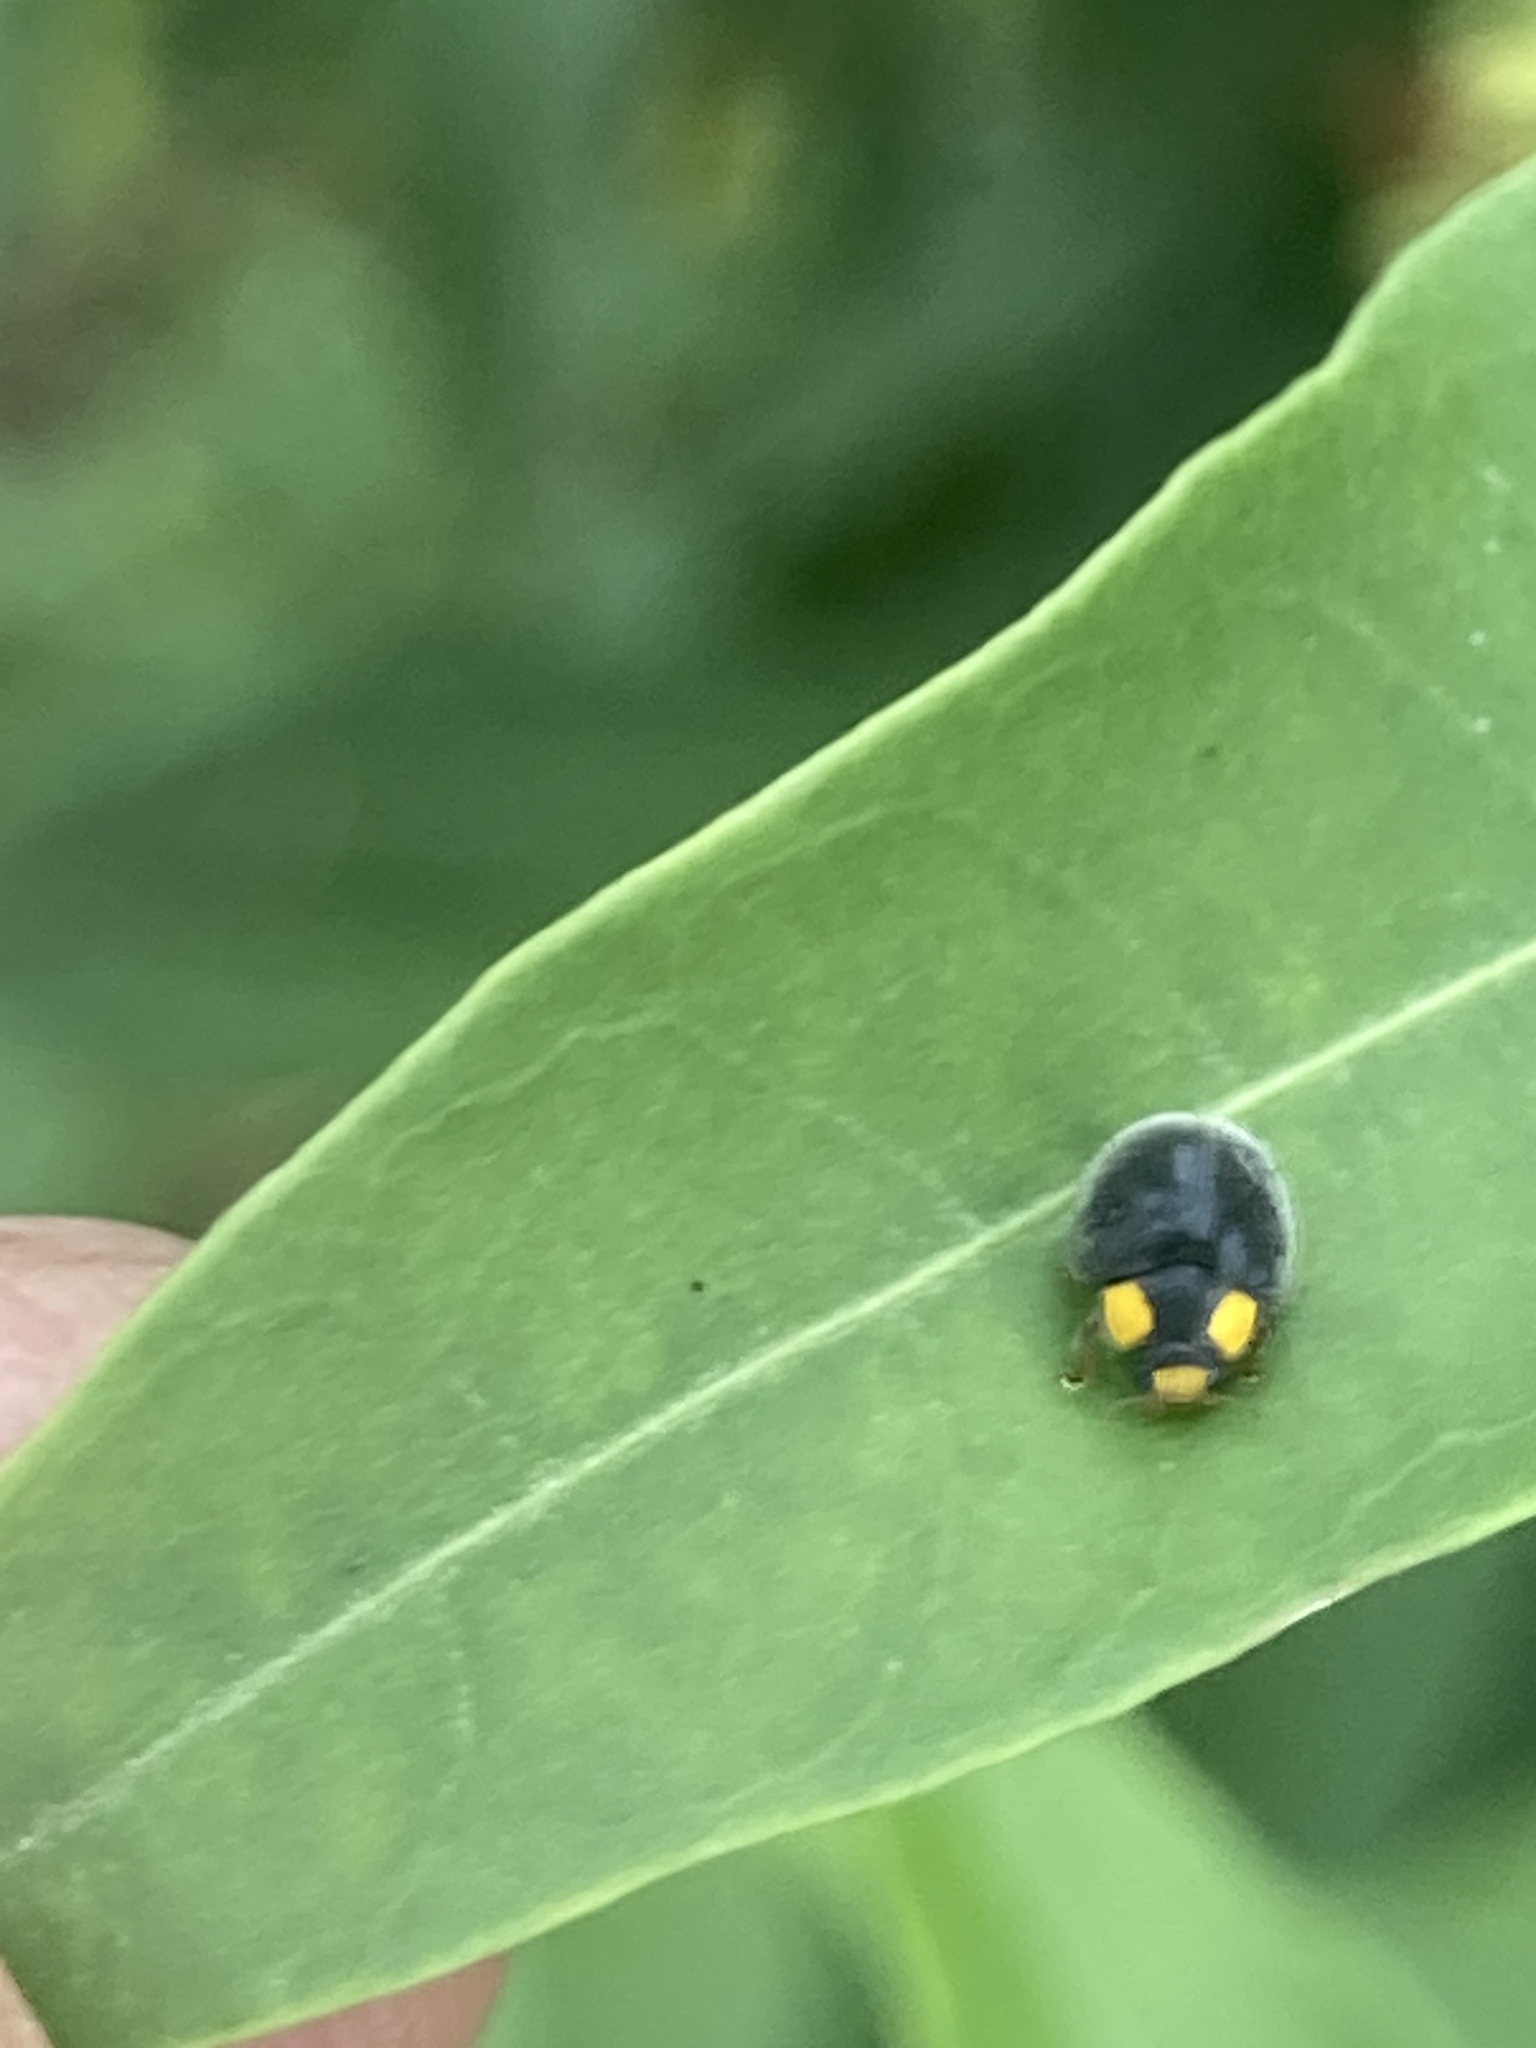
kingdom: Animalia
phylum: Arthropoda
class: Insecta
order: Coleoptera
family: Coccinellidae
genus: Scymnodes
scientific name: Scymnodes lividigaster
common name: Yellowshouldered lady beetle
